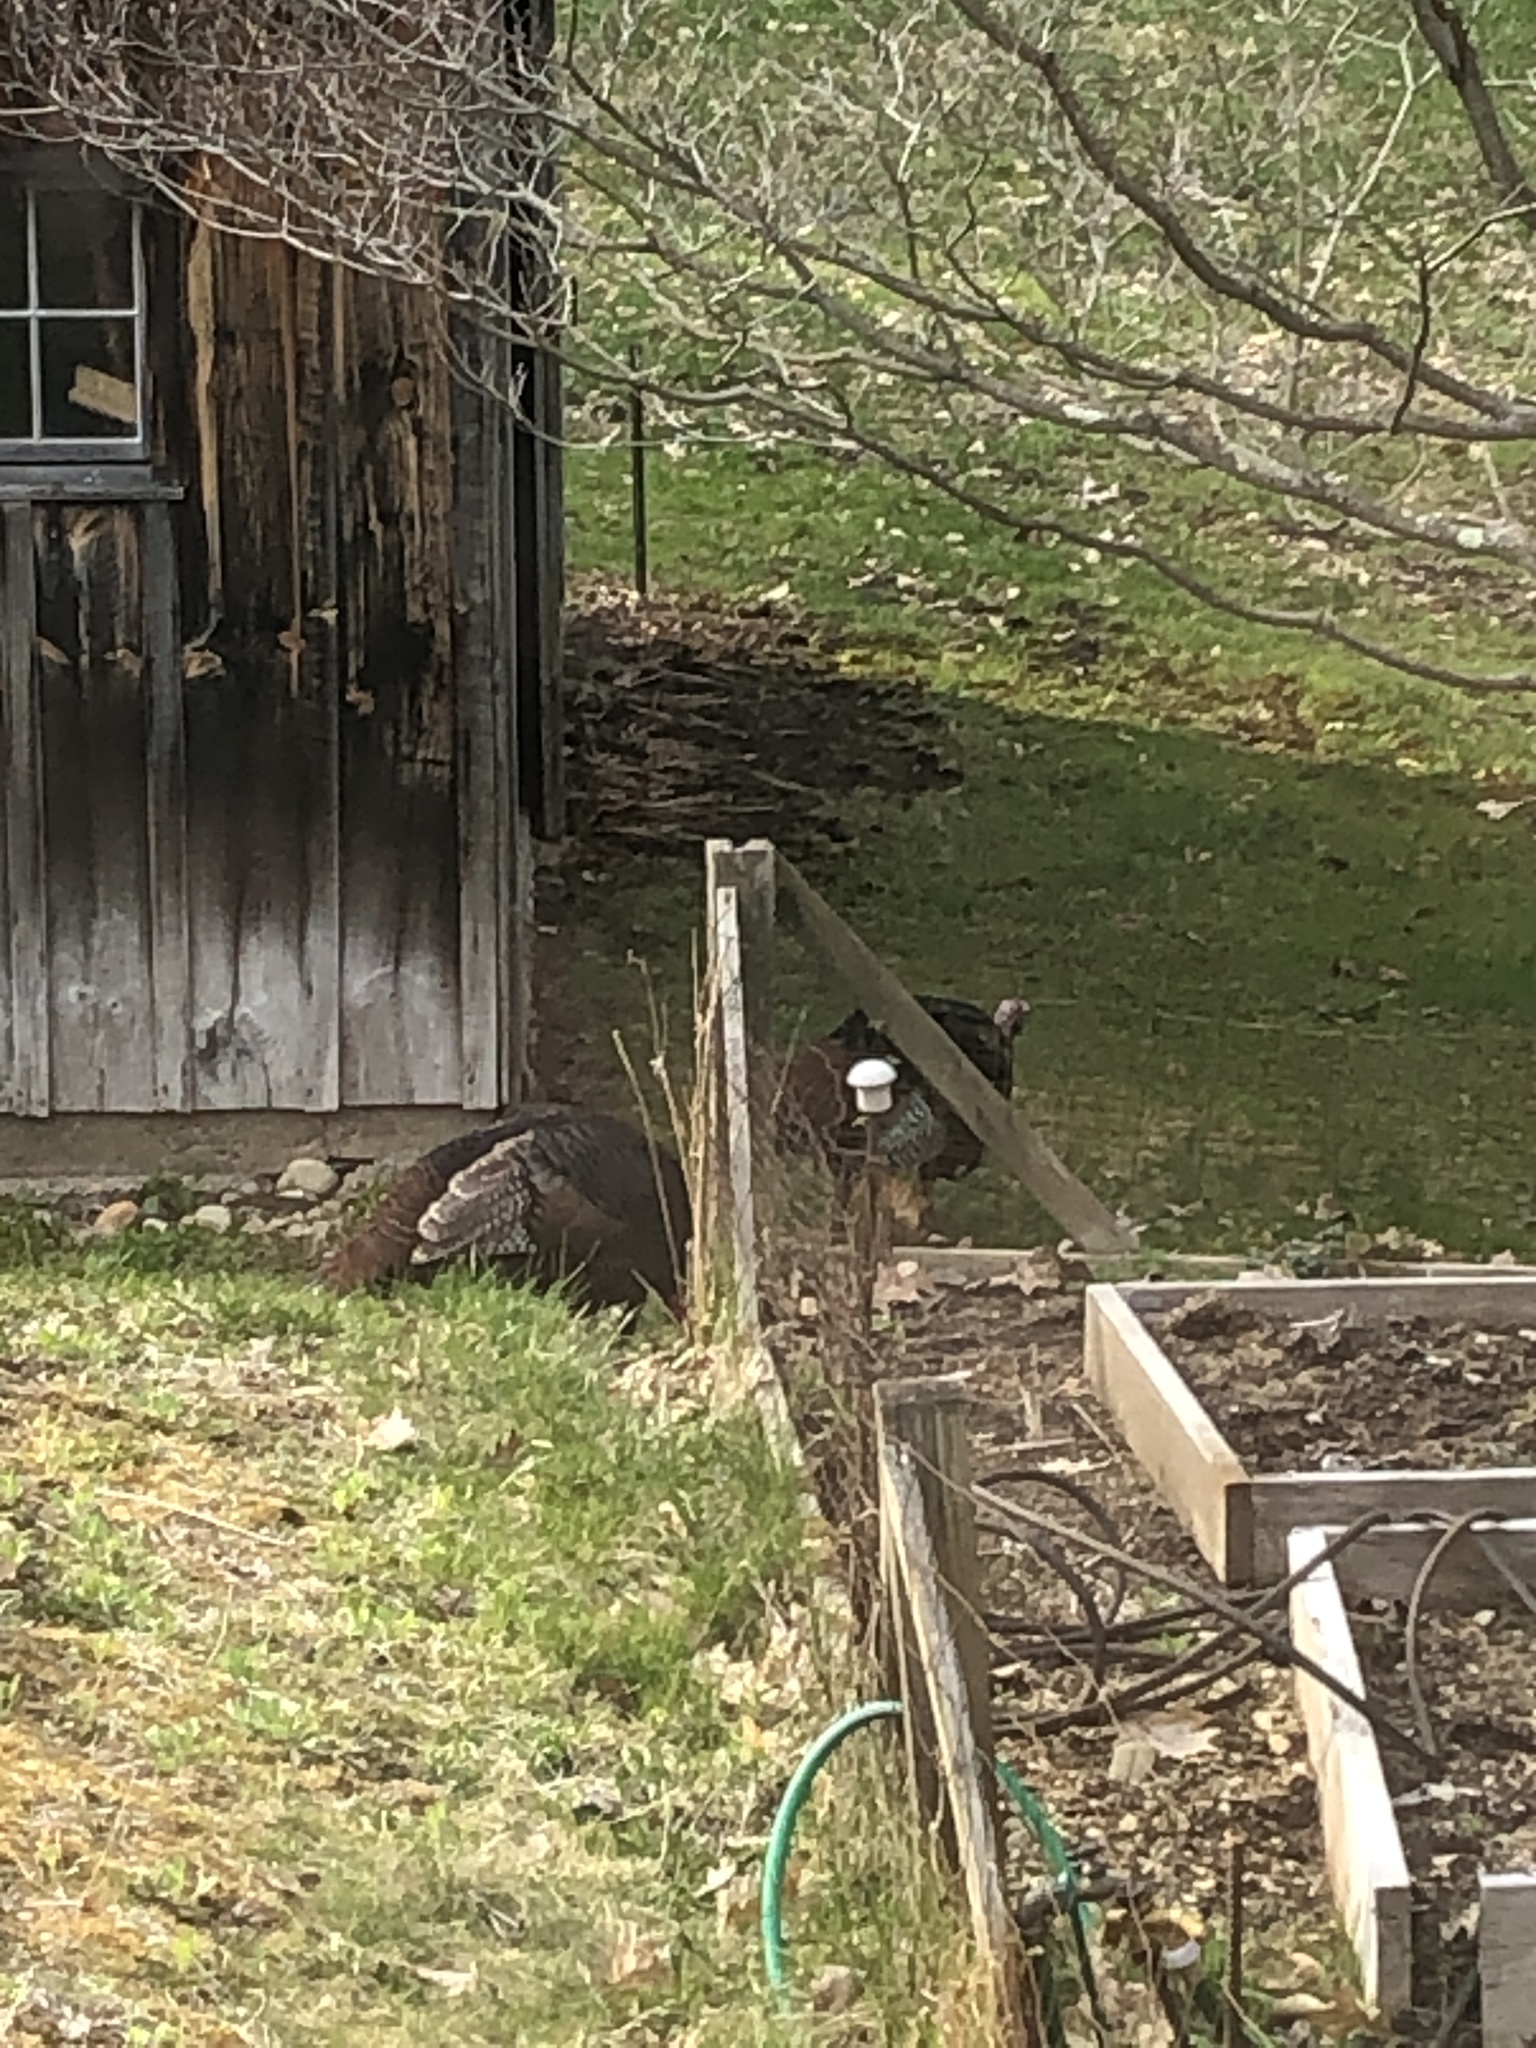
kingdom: Animalia
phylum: Chordata
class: Aves
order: Galliformes
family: Phasianidae
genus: Meleagris
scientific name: Meleagris gallopavo
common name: Wild turkey
